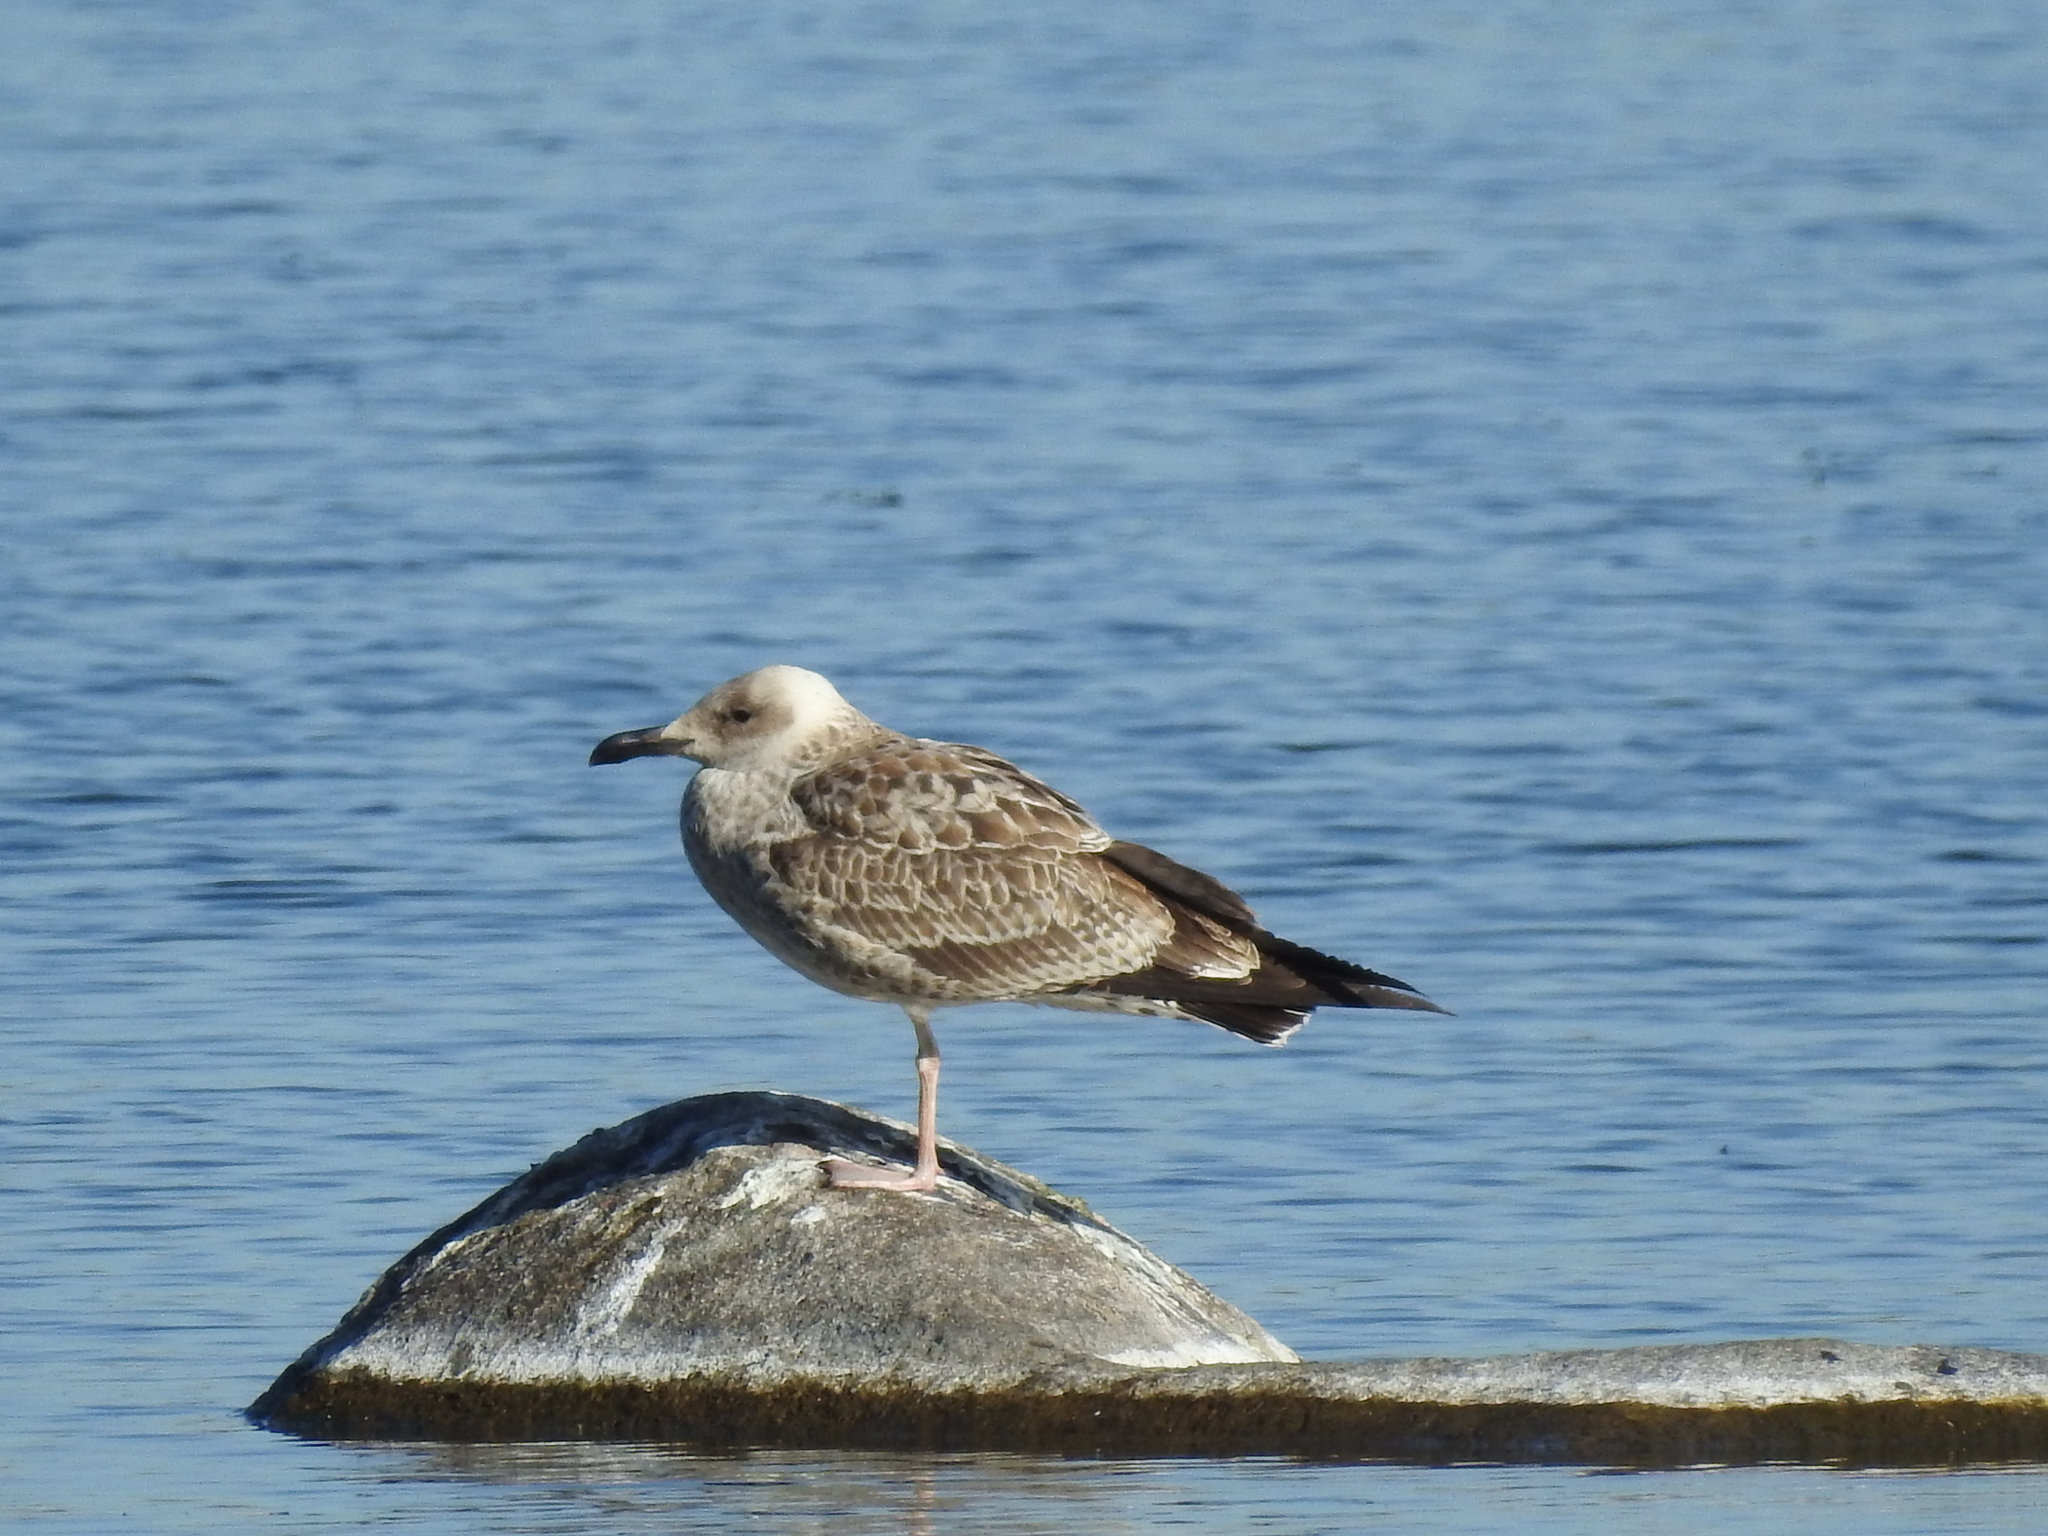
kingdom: Animalia
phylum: Chordata
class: Aves
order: Charadriiformes
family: Laridae
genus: Larus
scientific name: Larus fuscus
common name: Lesser black-backed gull
